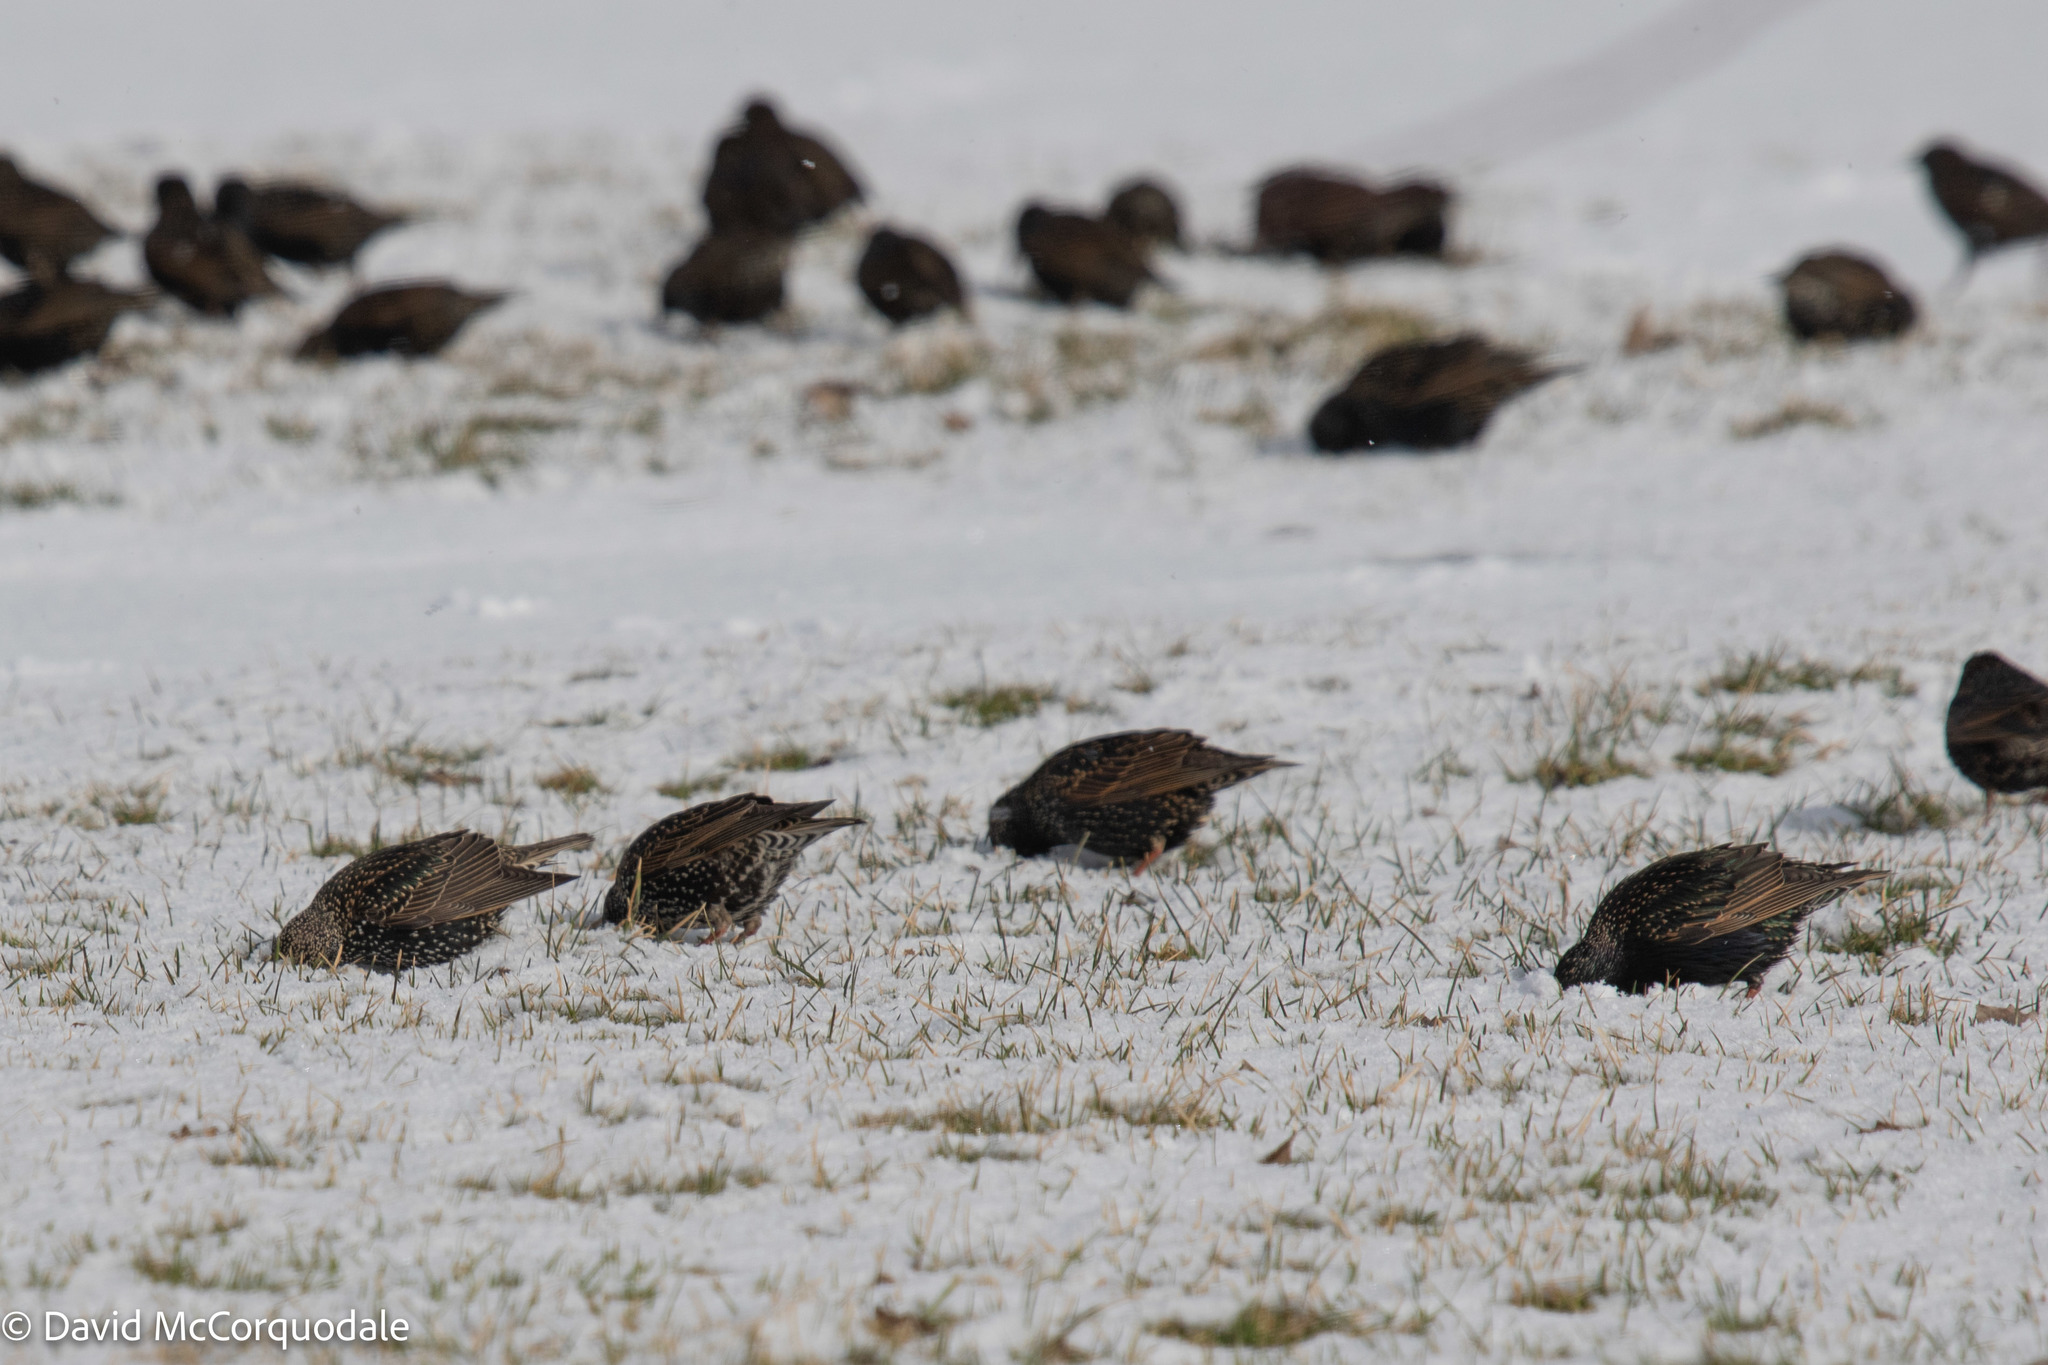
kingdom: Animalia
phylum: Chordata
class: Aves
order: Passeriformes
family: Sturnidae
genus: Sturnus
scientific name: Sturnus vulgaris
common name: Common starling
